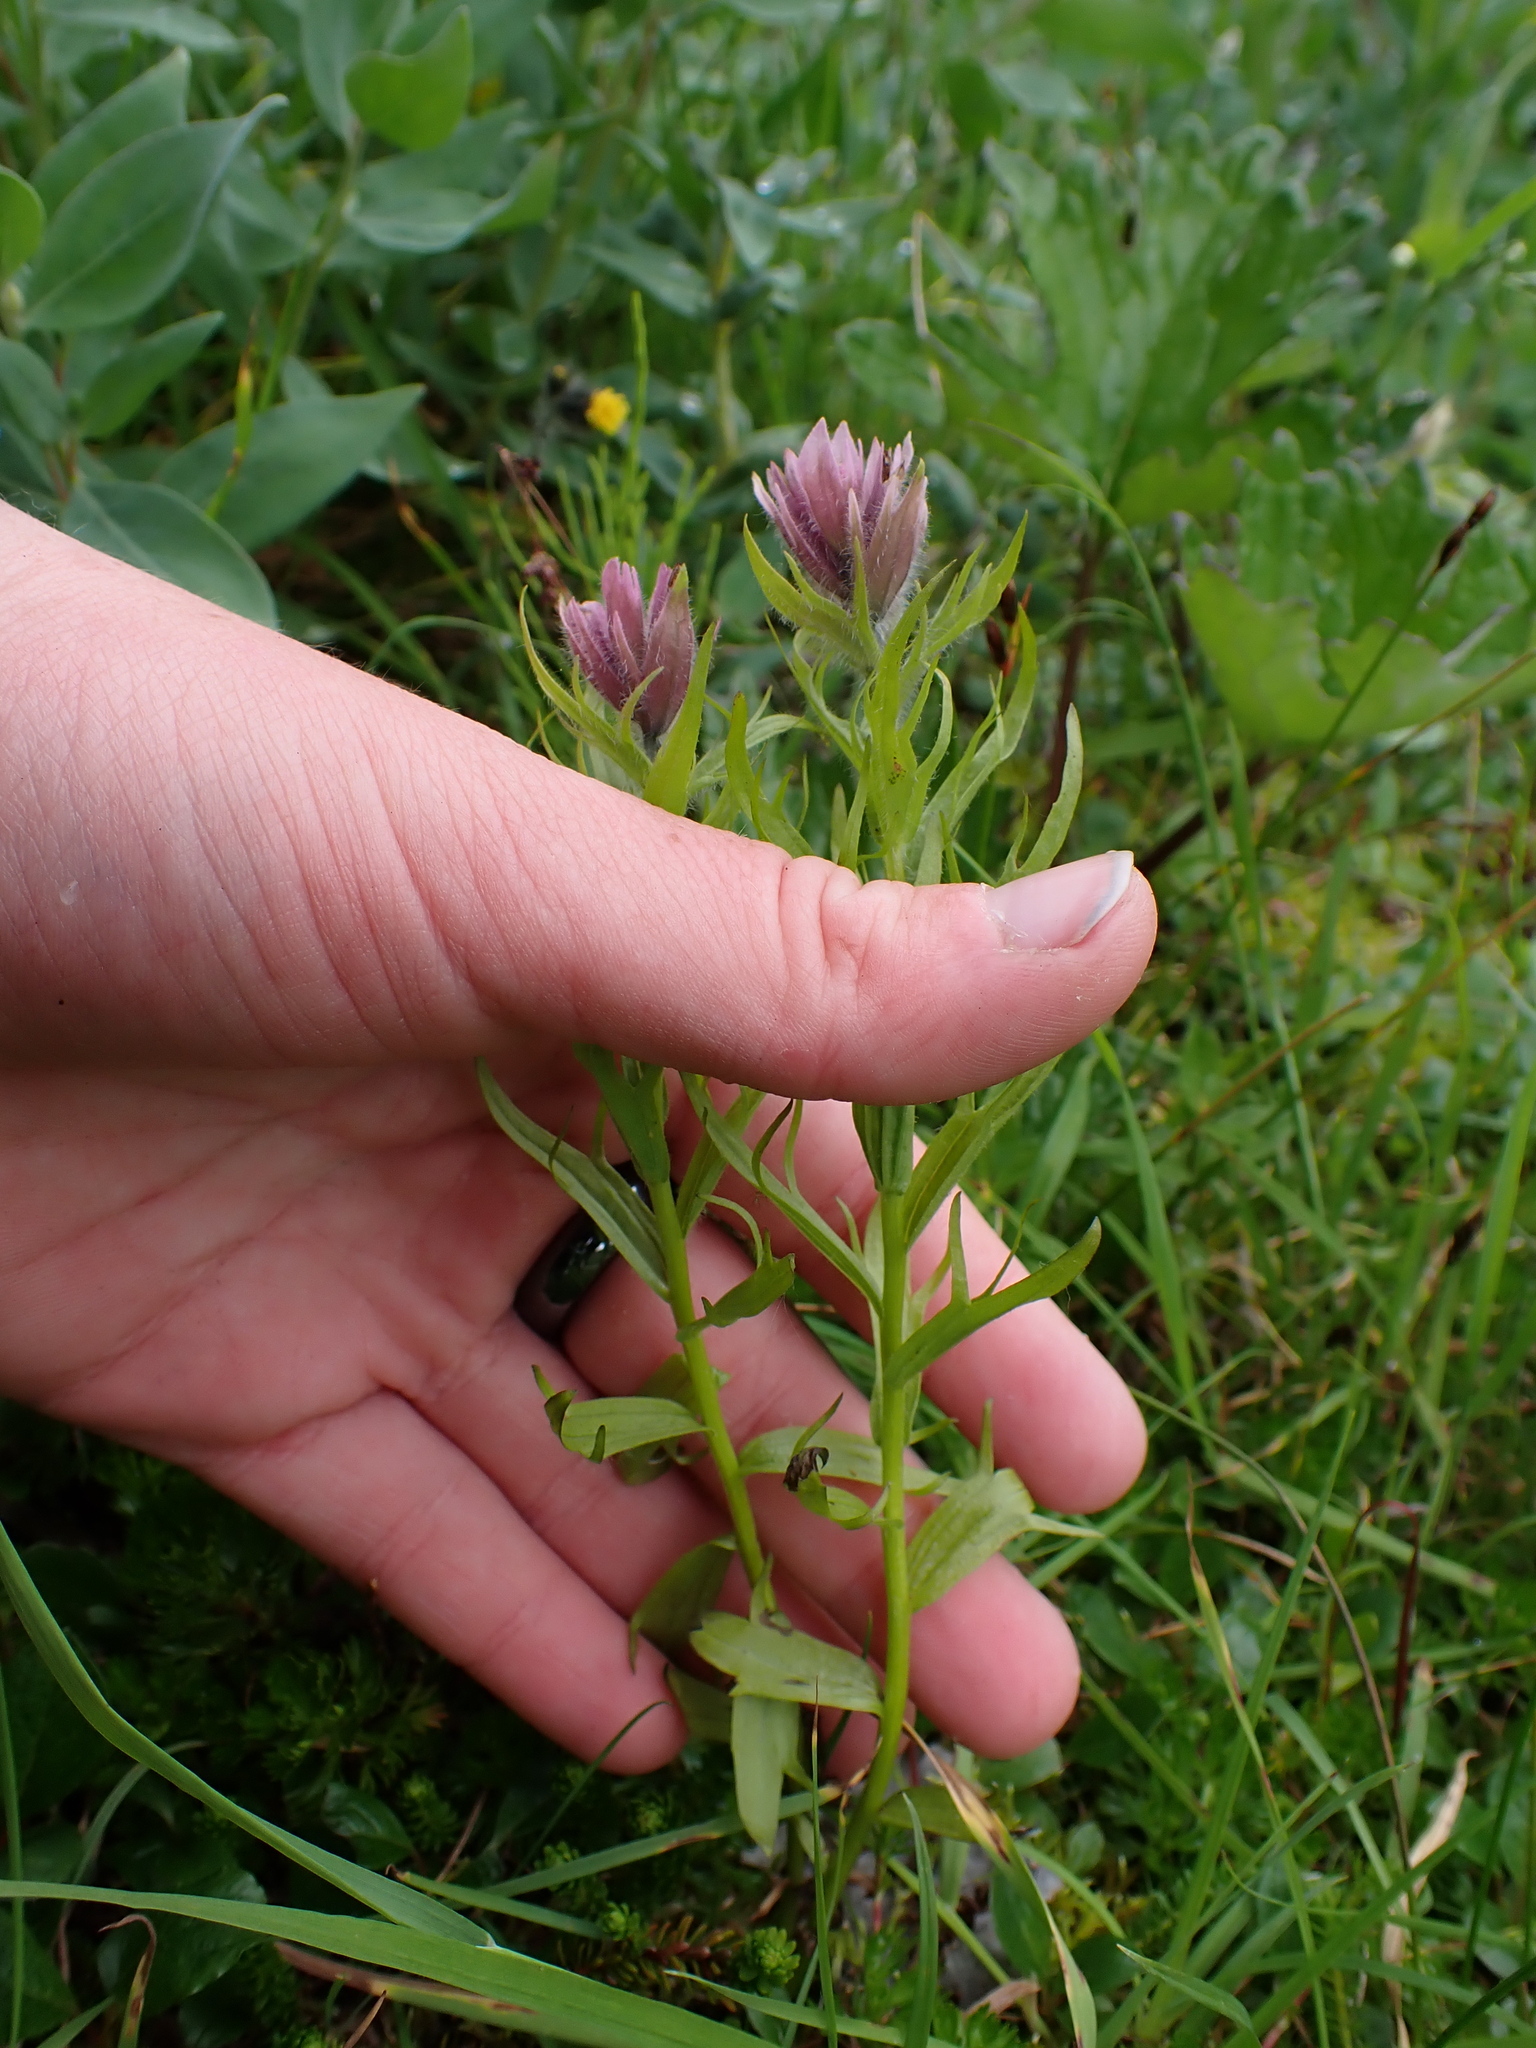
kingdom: Plantae
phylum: Tracheophyta
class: Magnoliopsida
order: Lamiales
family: Orobanchaceae
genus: Castilleja
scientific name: Castilleja parviflora
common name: Mountain paintbrush
